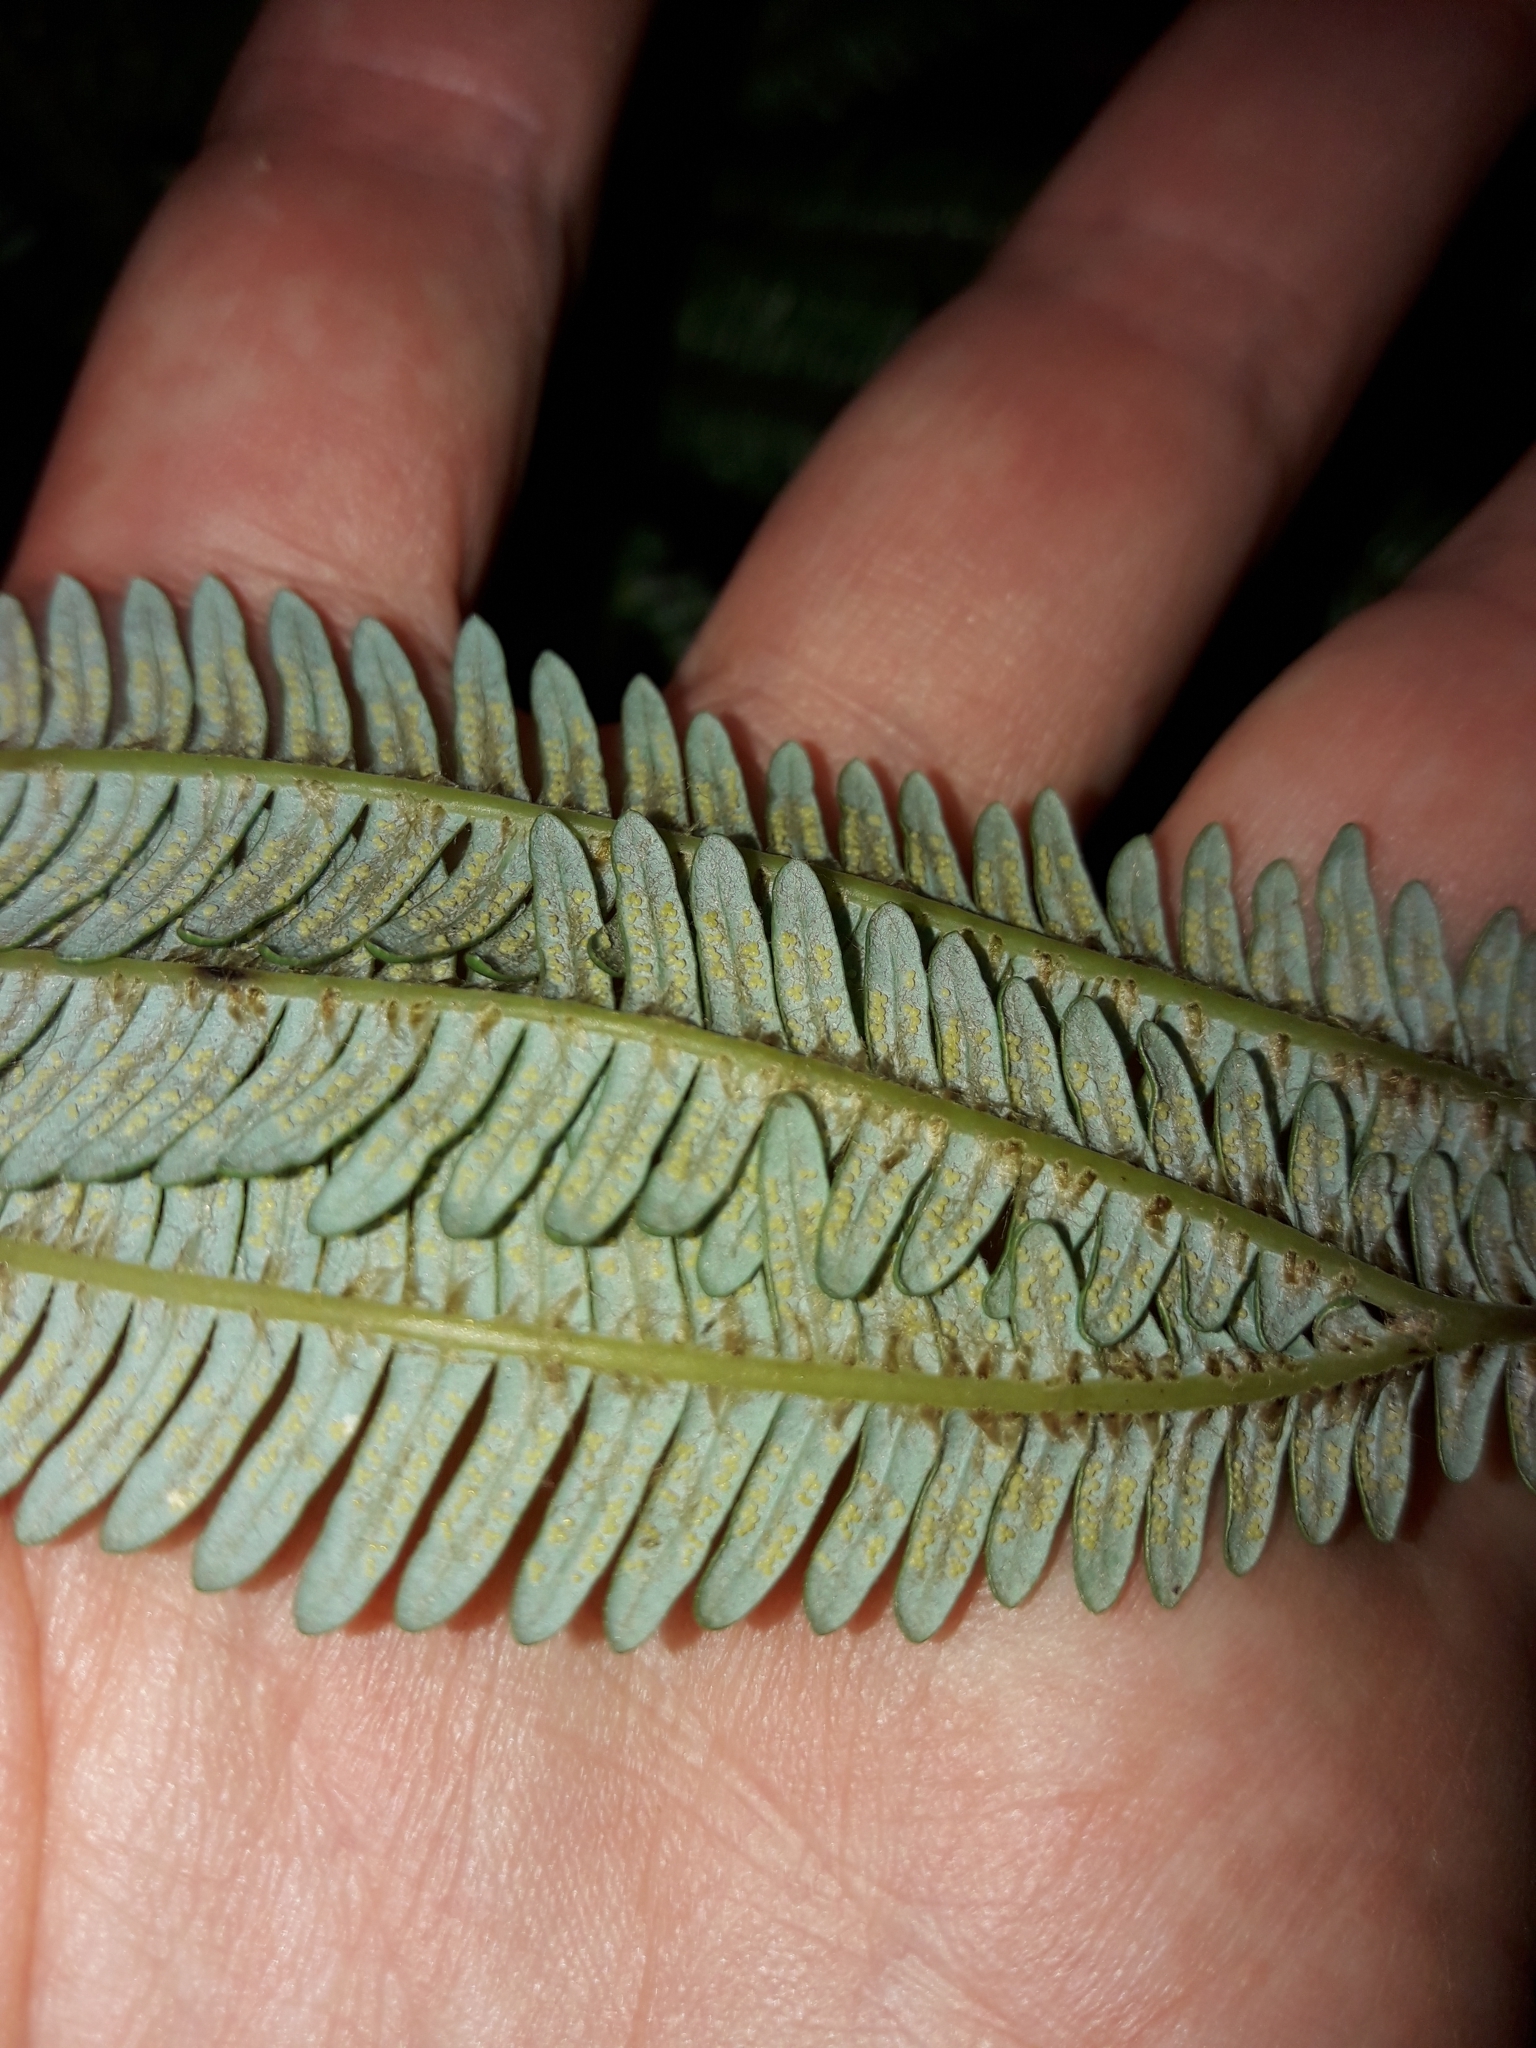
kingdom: Plantae
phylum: Tracheophyta
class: Polypodiopsida
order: Gleicheniales
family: Gleicheniaceae
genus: Sticherus
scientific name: Sticherus cunninghamii
